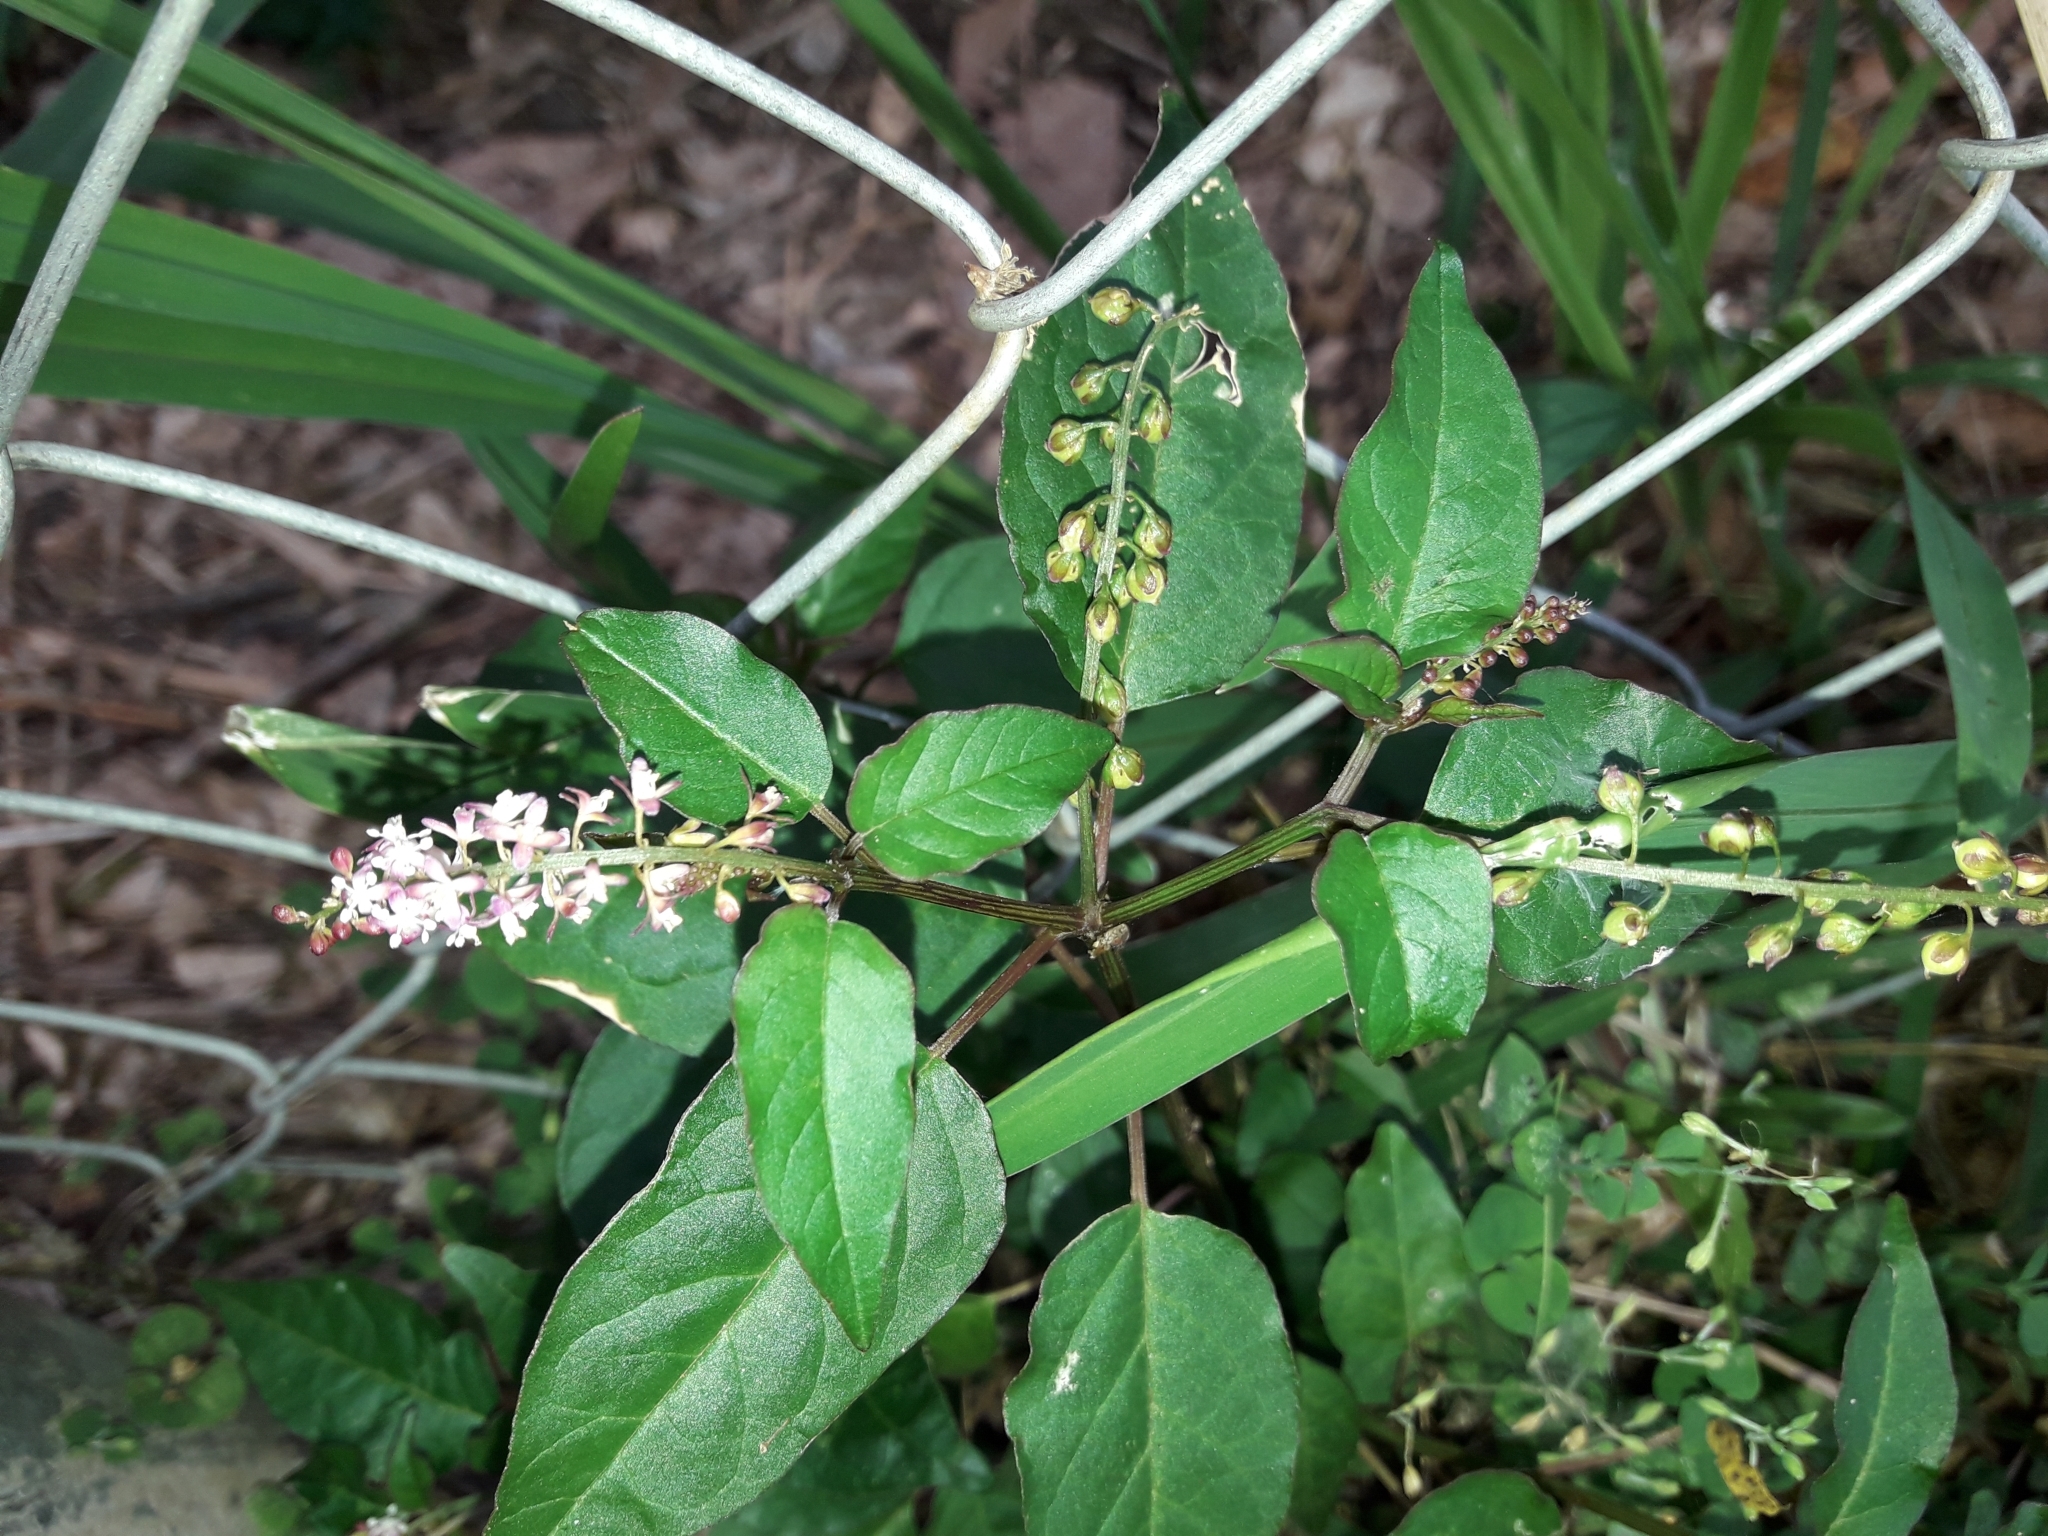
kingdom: Plantae
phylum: Tracheophyta
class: Magnoliopsida
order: Caryophyllales
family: Phytolaccaceae
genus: Rivina
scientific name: Rivina humilis
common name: Rougeplant
